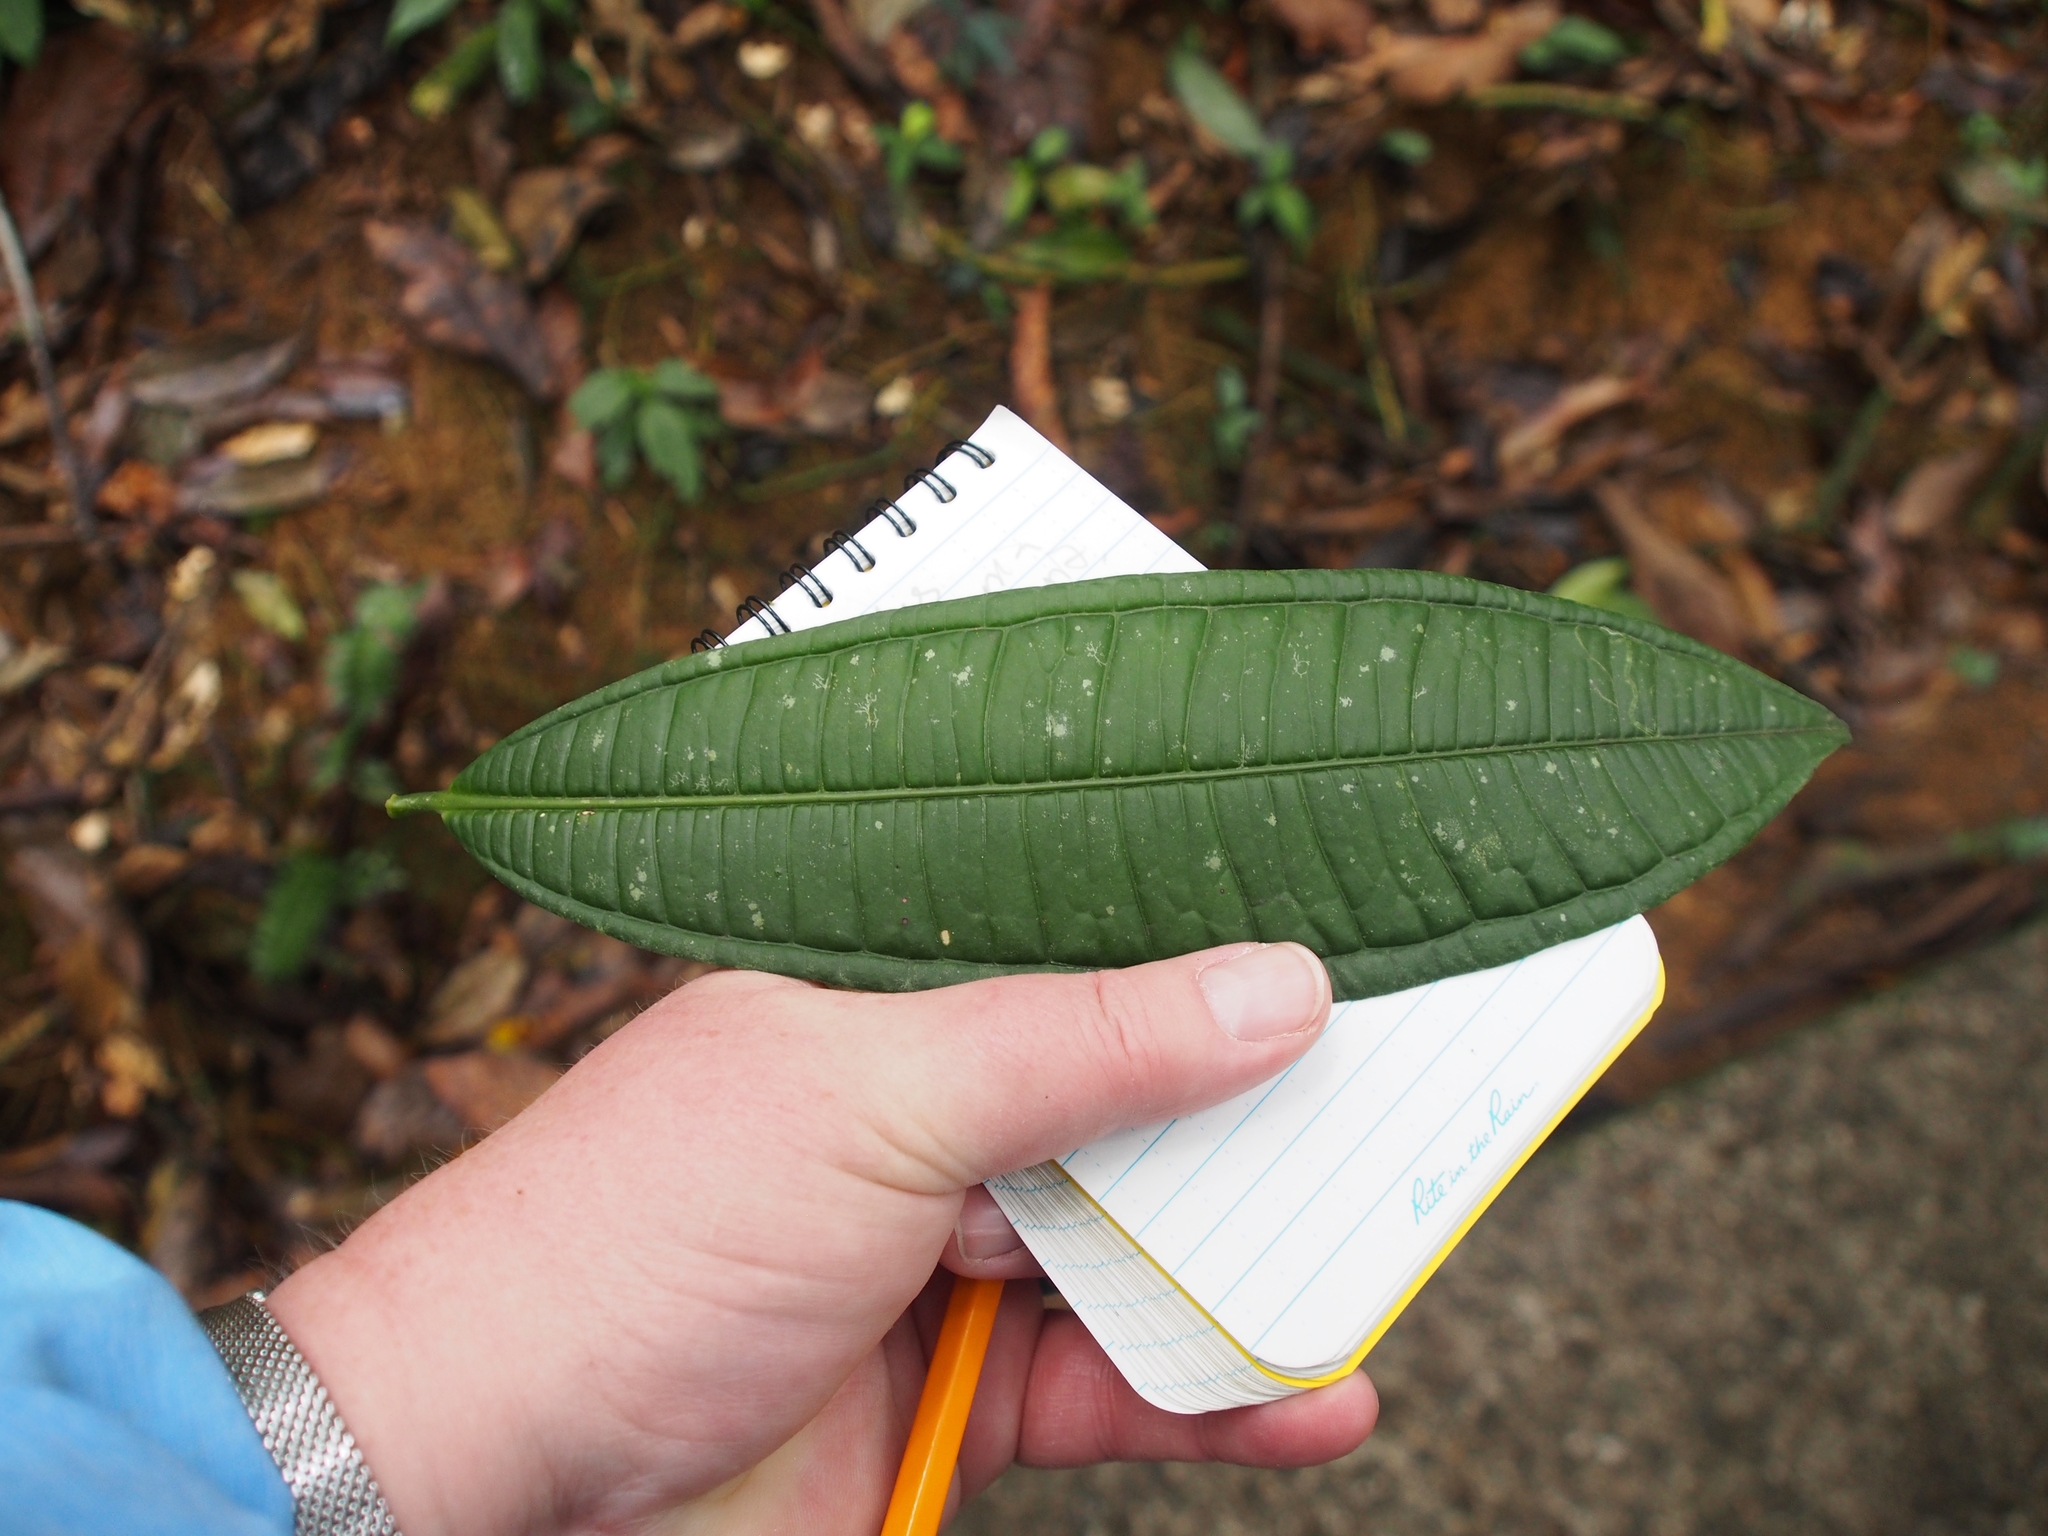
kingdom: Plantae
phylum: Tracheophyta
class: Magnoliopsida
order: Gentianales
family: Rubiaceae
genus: Faramea
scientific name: Faramea suerrensis
